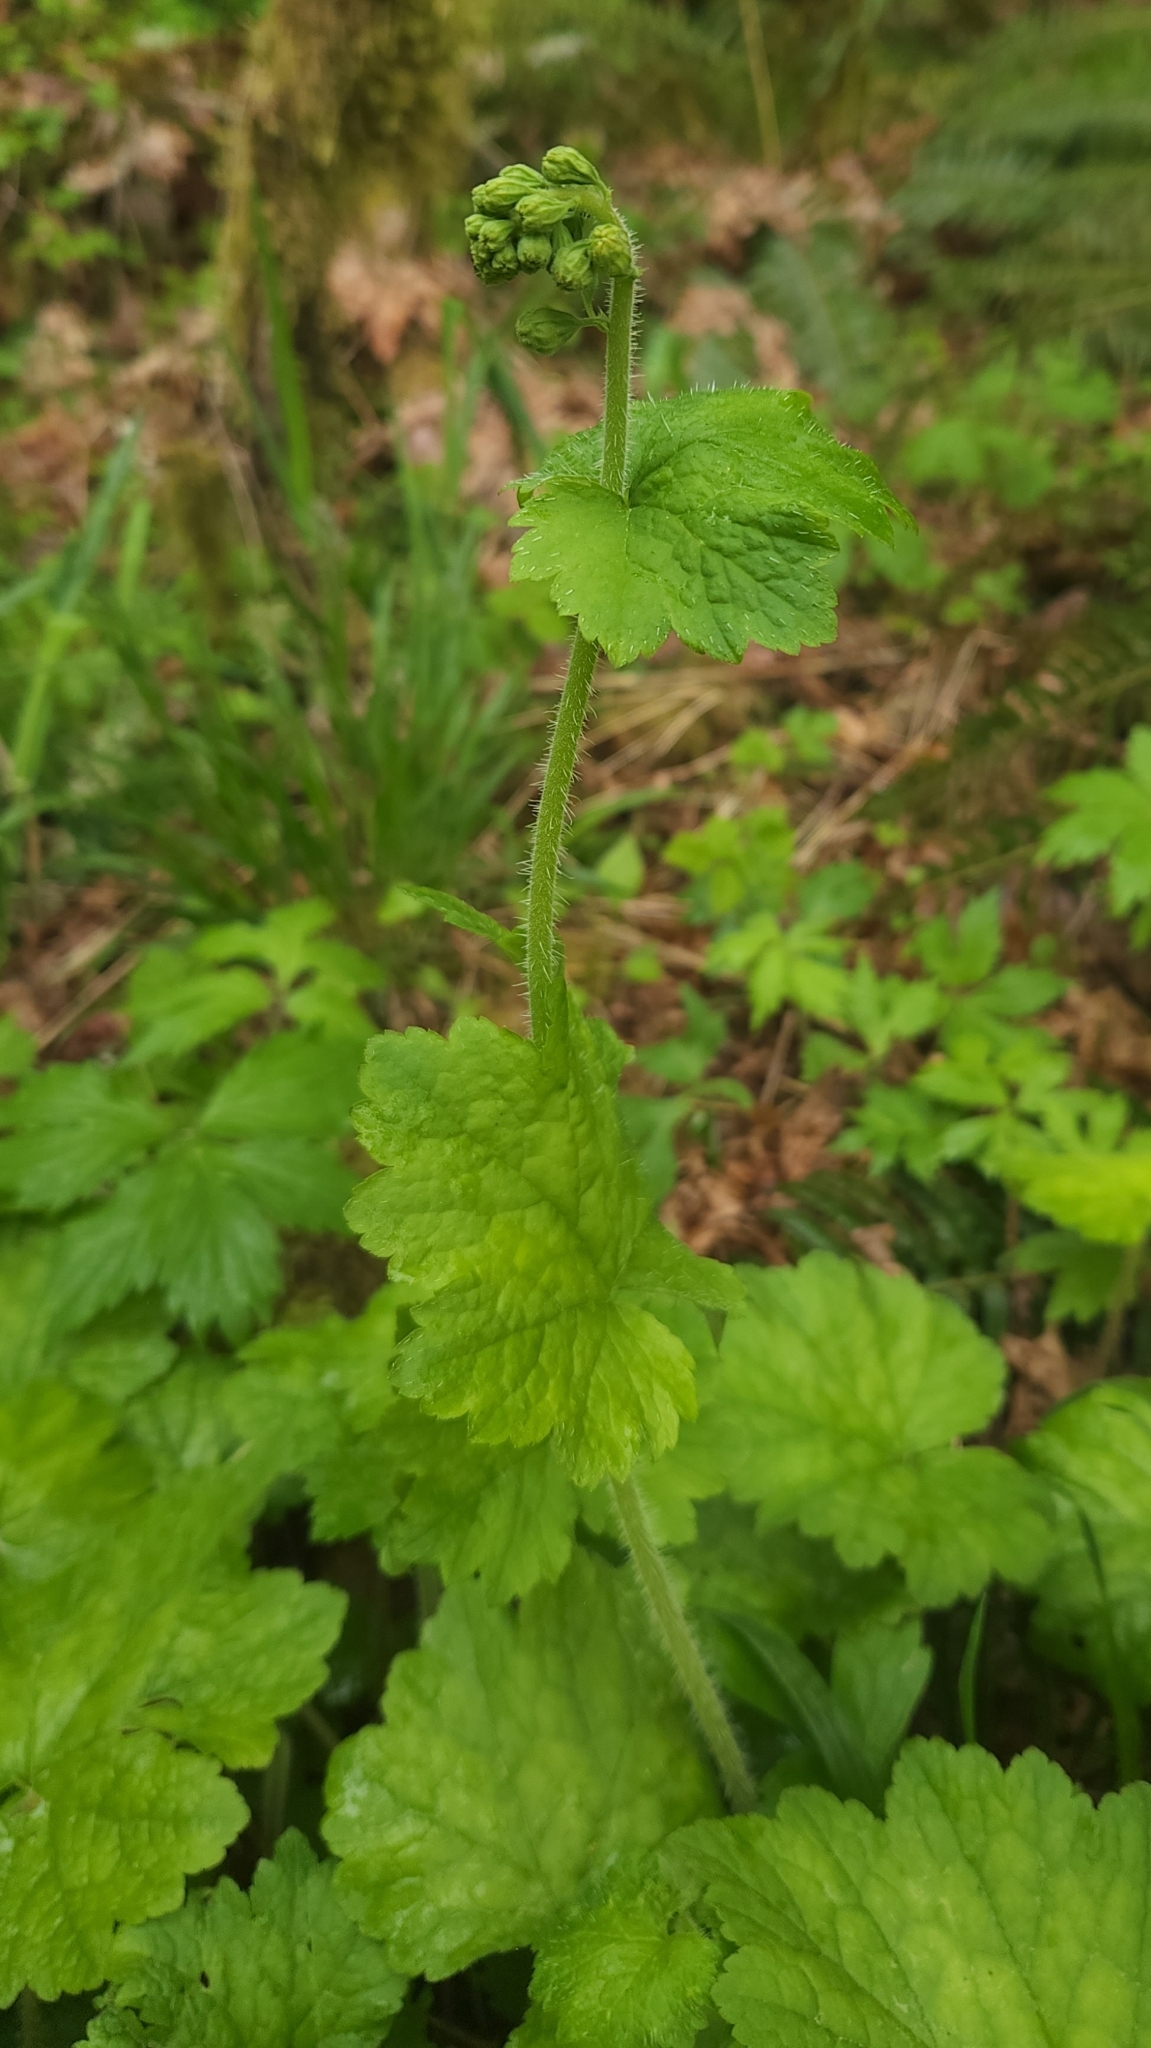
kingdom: Plantae
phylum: Tracheophyta
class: Magnoliopsida
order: Saxifragales
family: Saxifragaceae
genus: Tellima
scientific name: Tellima grandiflora
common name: Fringecups
